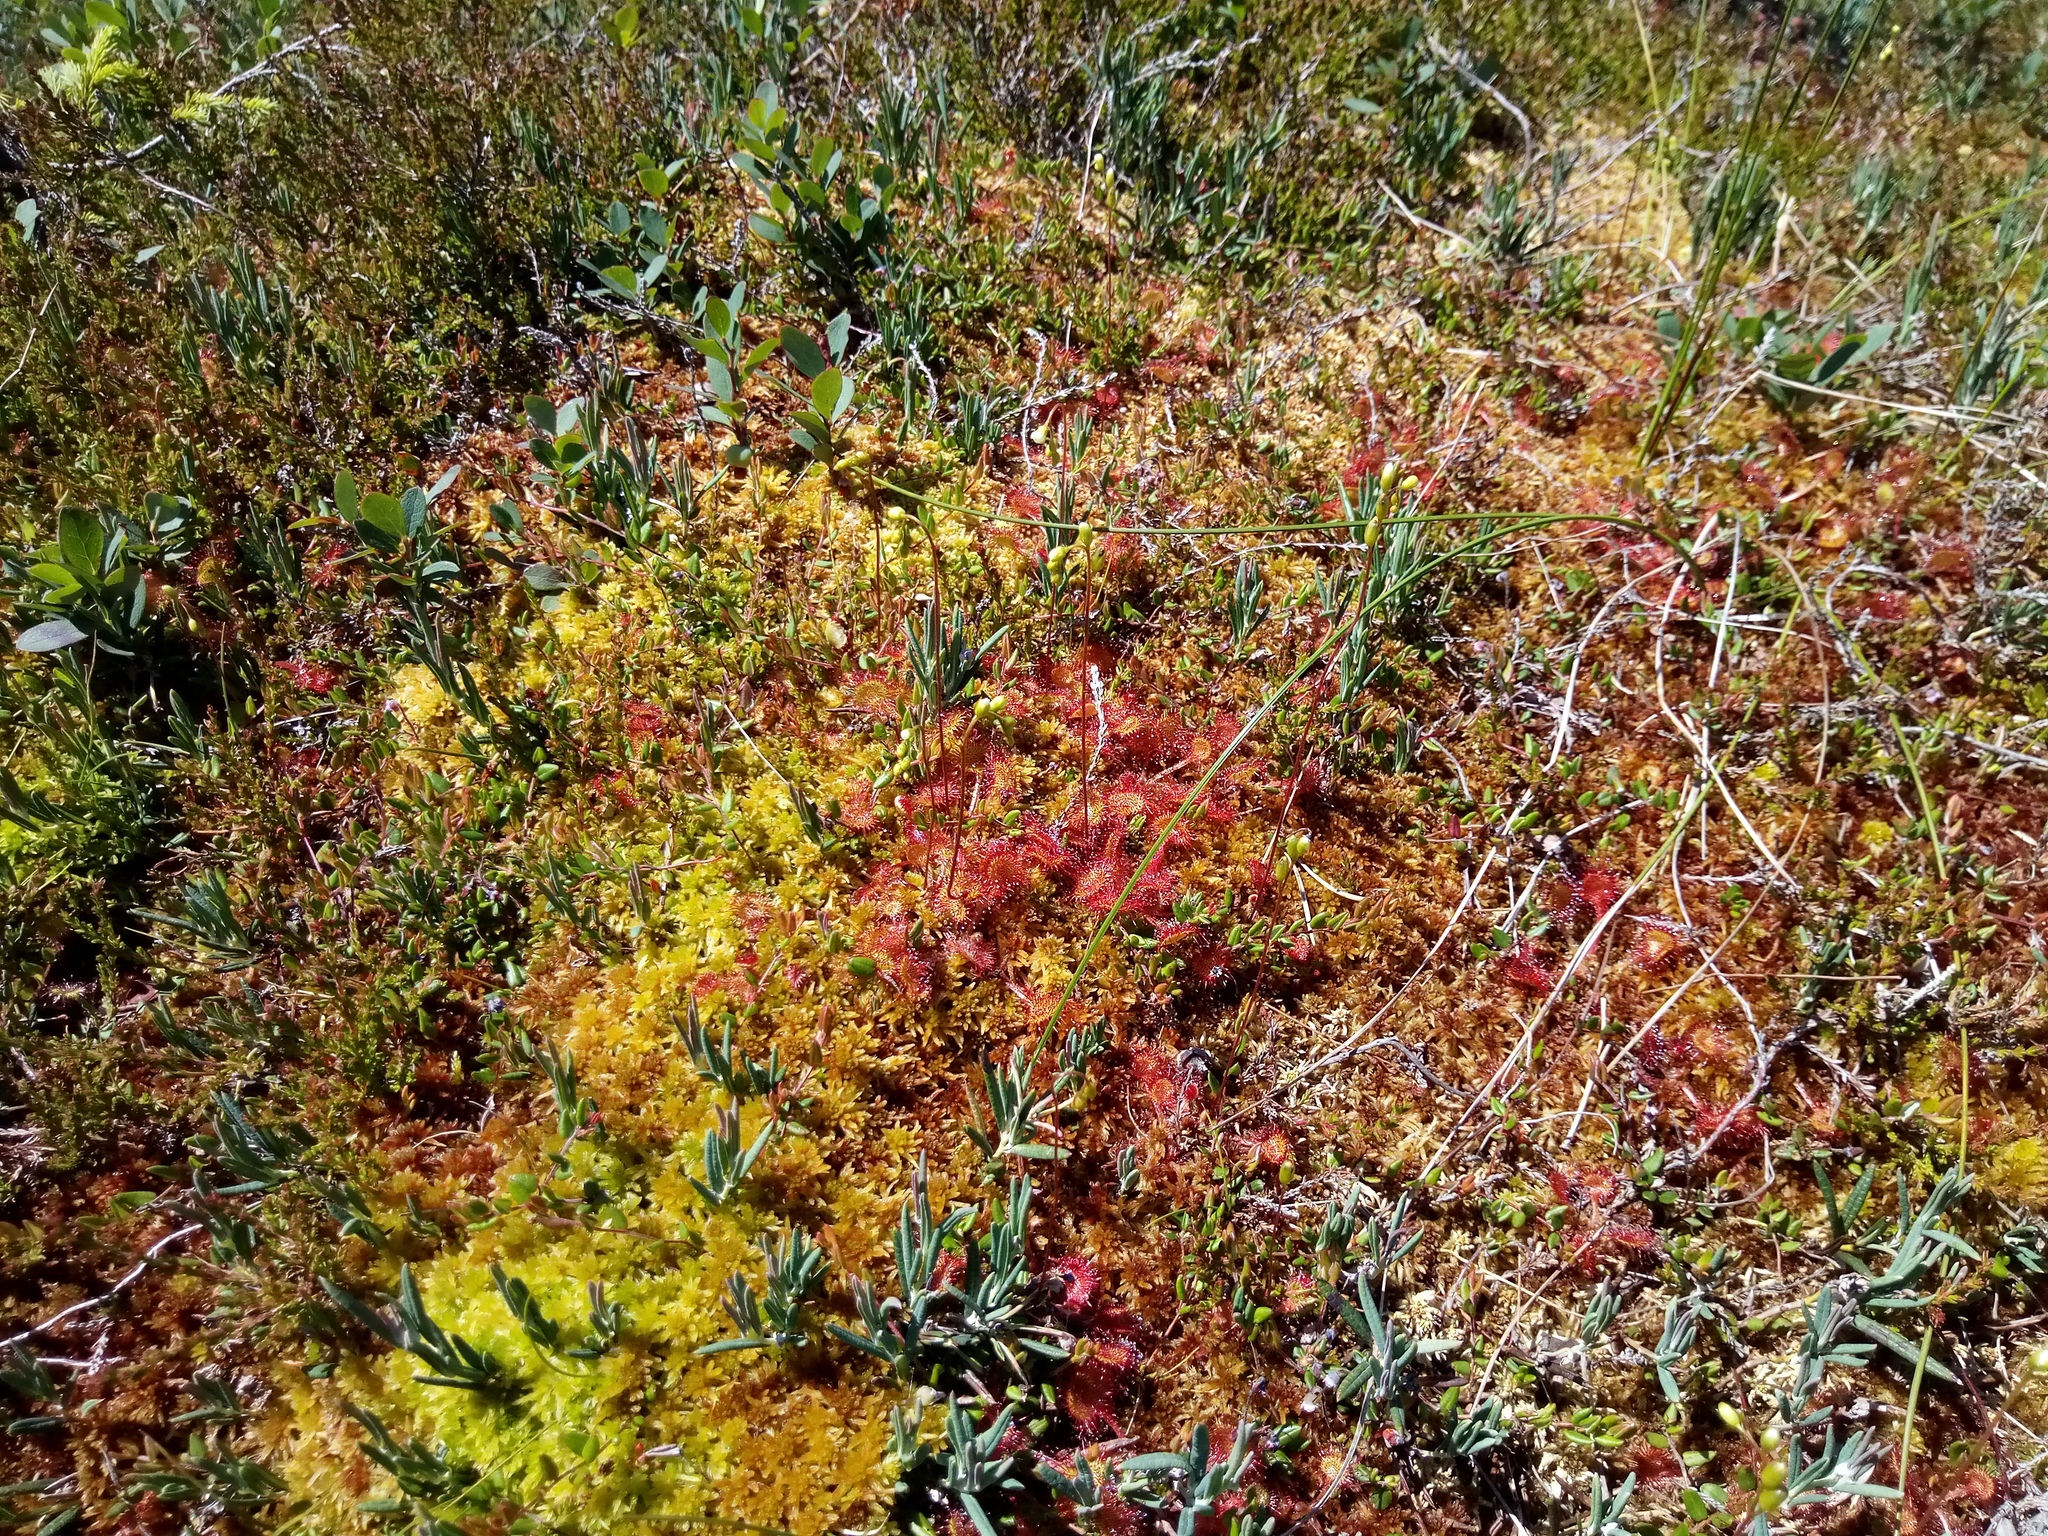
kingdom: Plantae
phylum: Tracheophyta
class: Magnoliopsida
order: Ericales
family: Ericaceae
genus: Andromeda
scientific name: Andromeda polifolia
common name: Bog-rosemary
